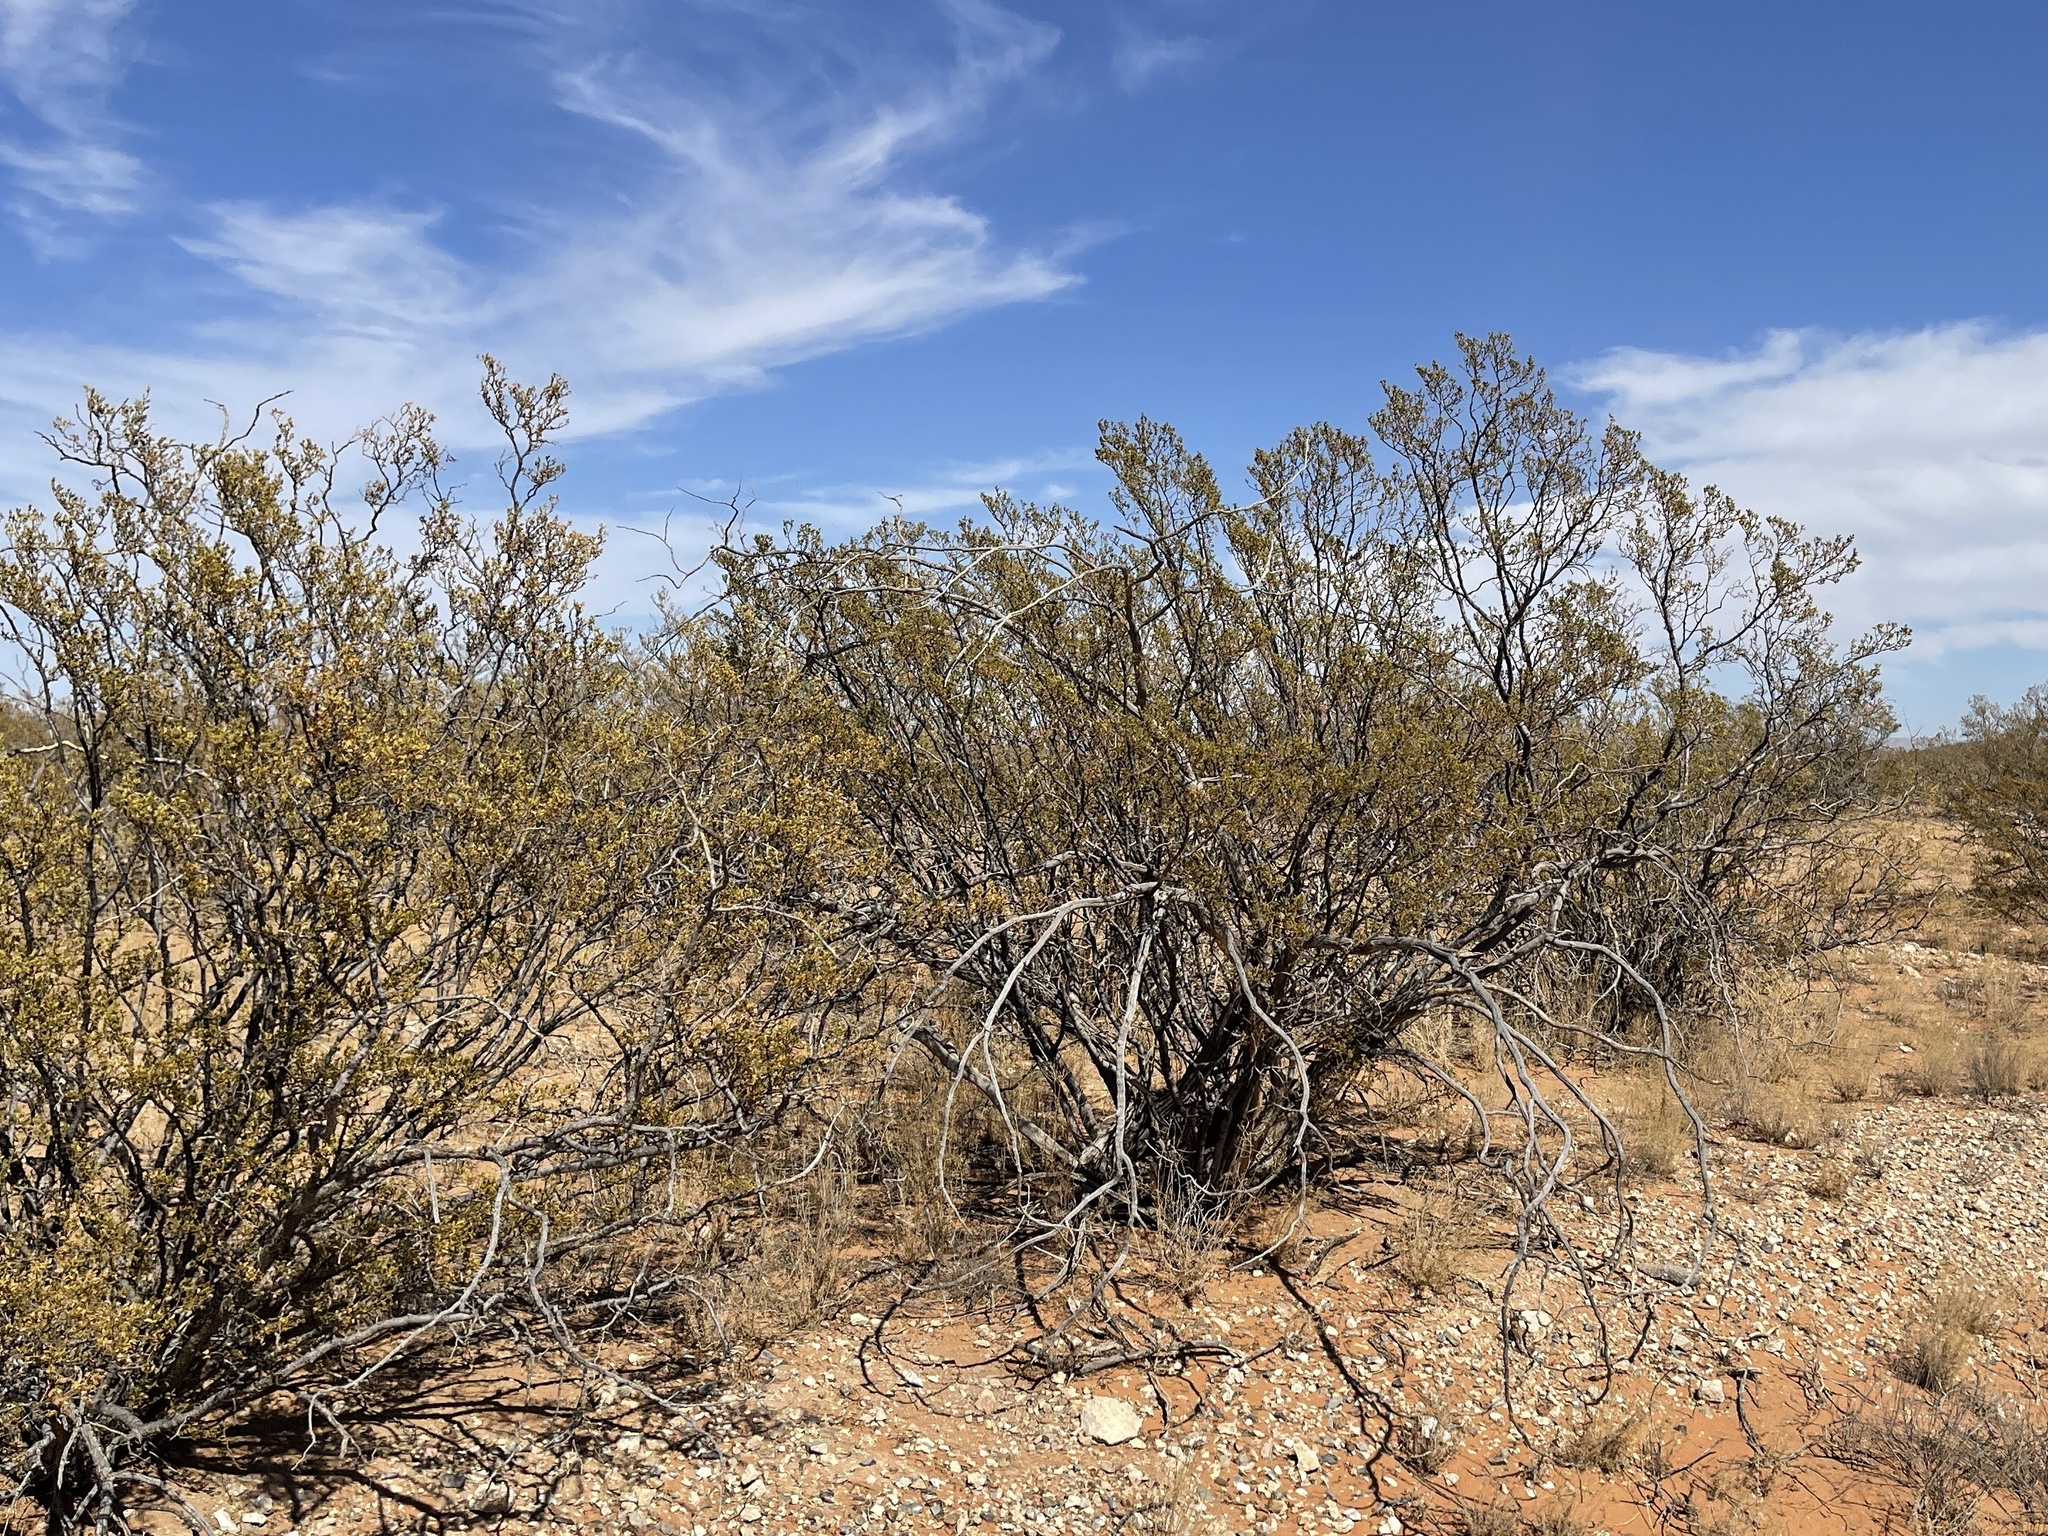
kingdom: Plantae
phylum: Tracheophyta
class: Magnoliopsida
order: Zygophyllales
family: Zygophyllaceae
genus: Larrea
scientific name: Larrea tridentata
